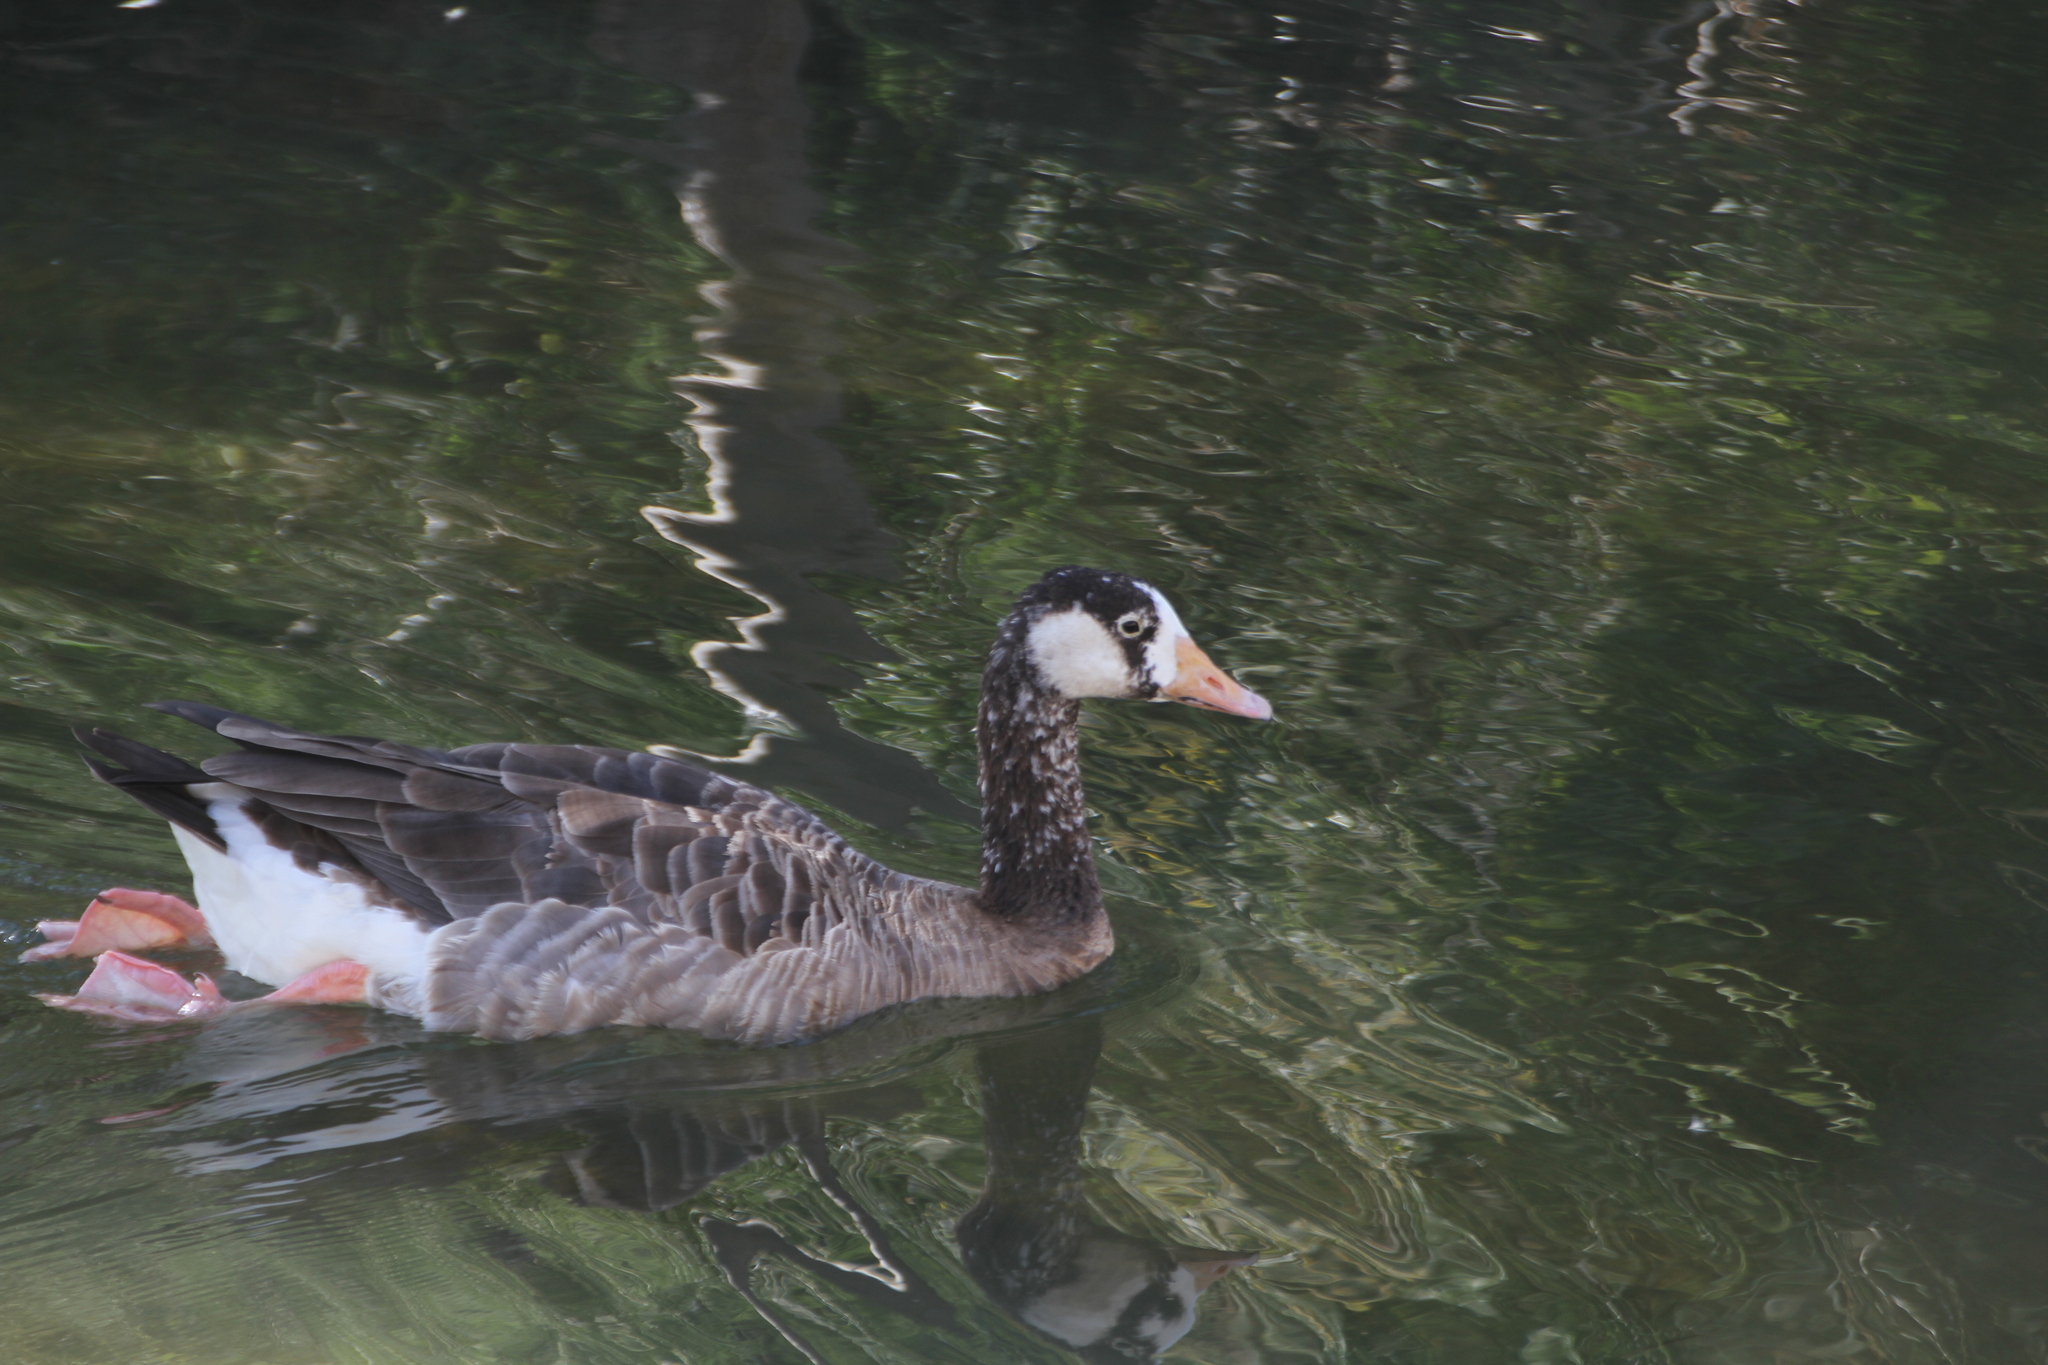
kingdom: Animalia
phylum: Chordata
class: Aves
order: Anseriformes
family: Anatidae
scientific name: Anatidae
